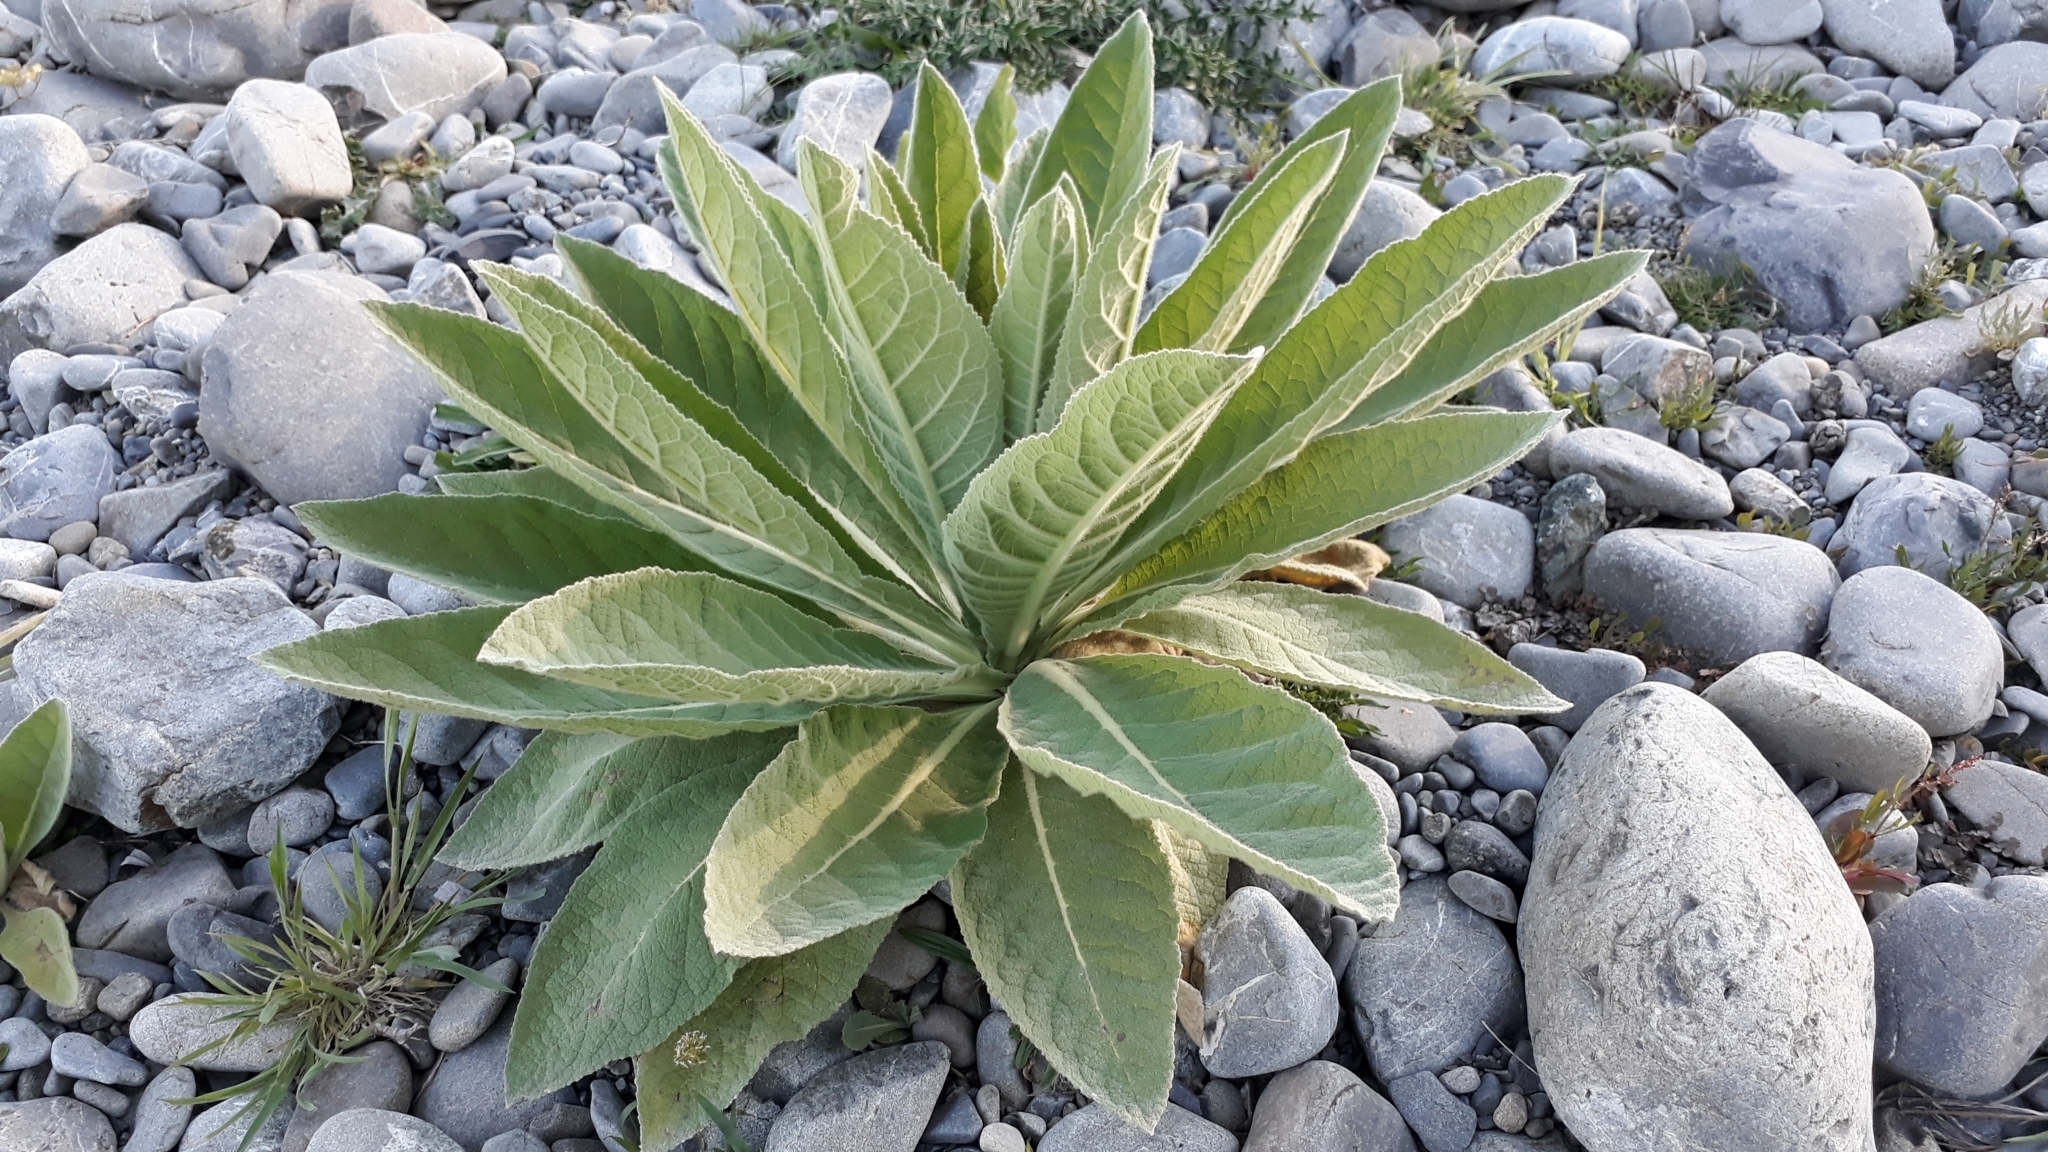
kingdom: Plantae
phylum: Tracheophyta
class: Magnoliopsida
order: Lamiales
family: Scrophulariaceae
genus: Verbascum
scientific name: Verbascum thapsus
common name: Common mullein
